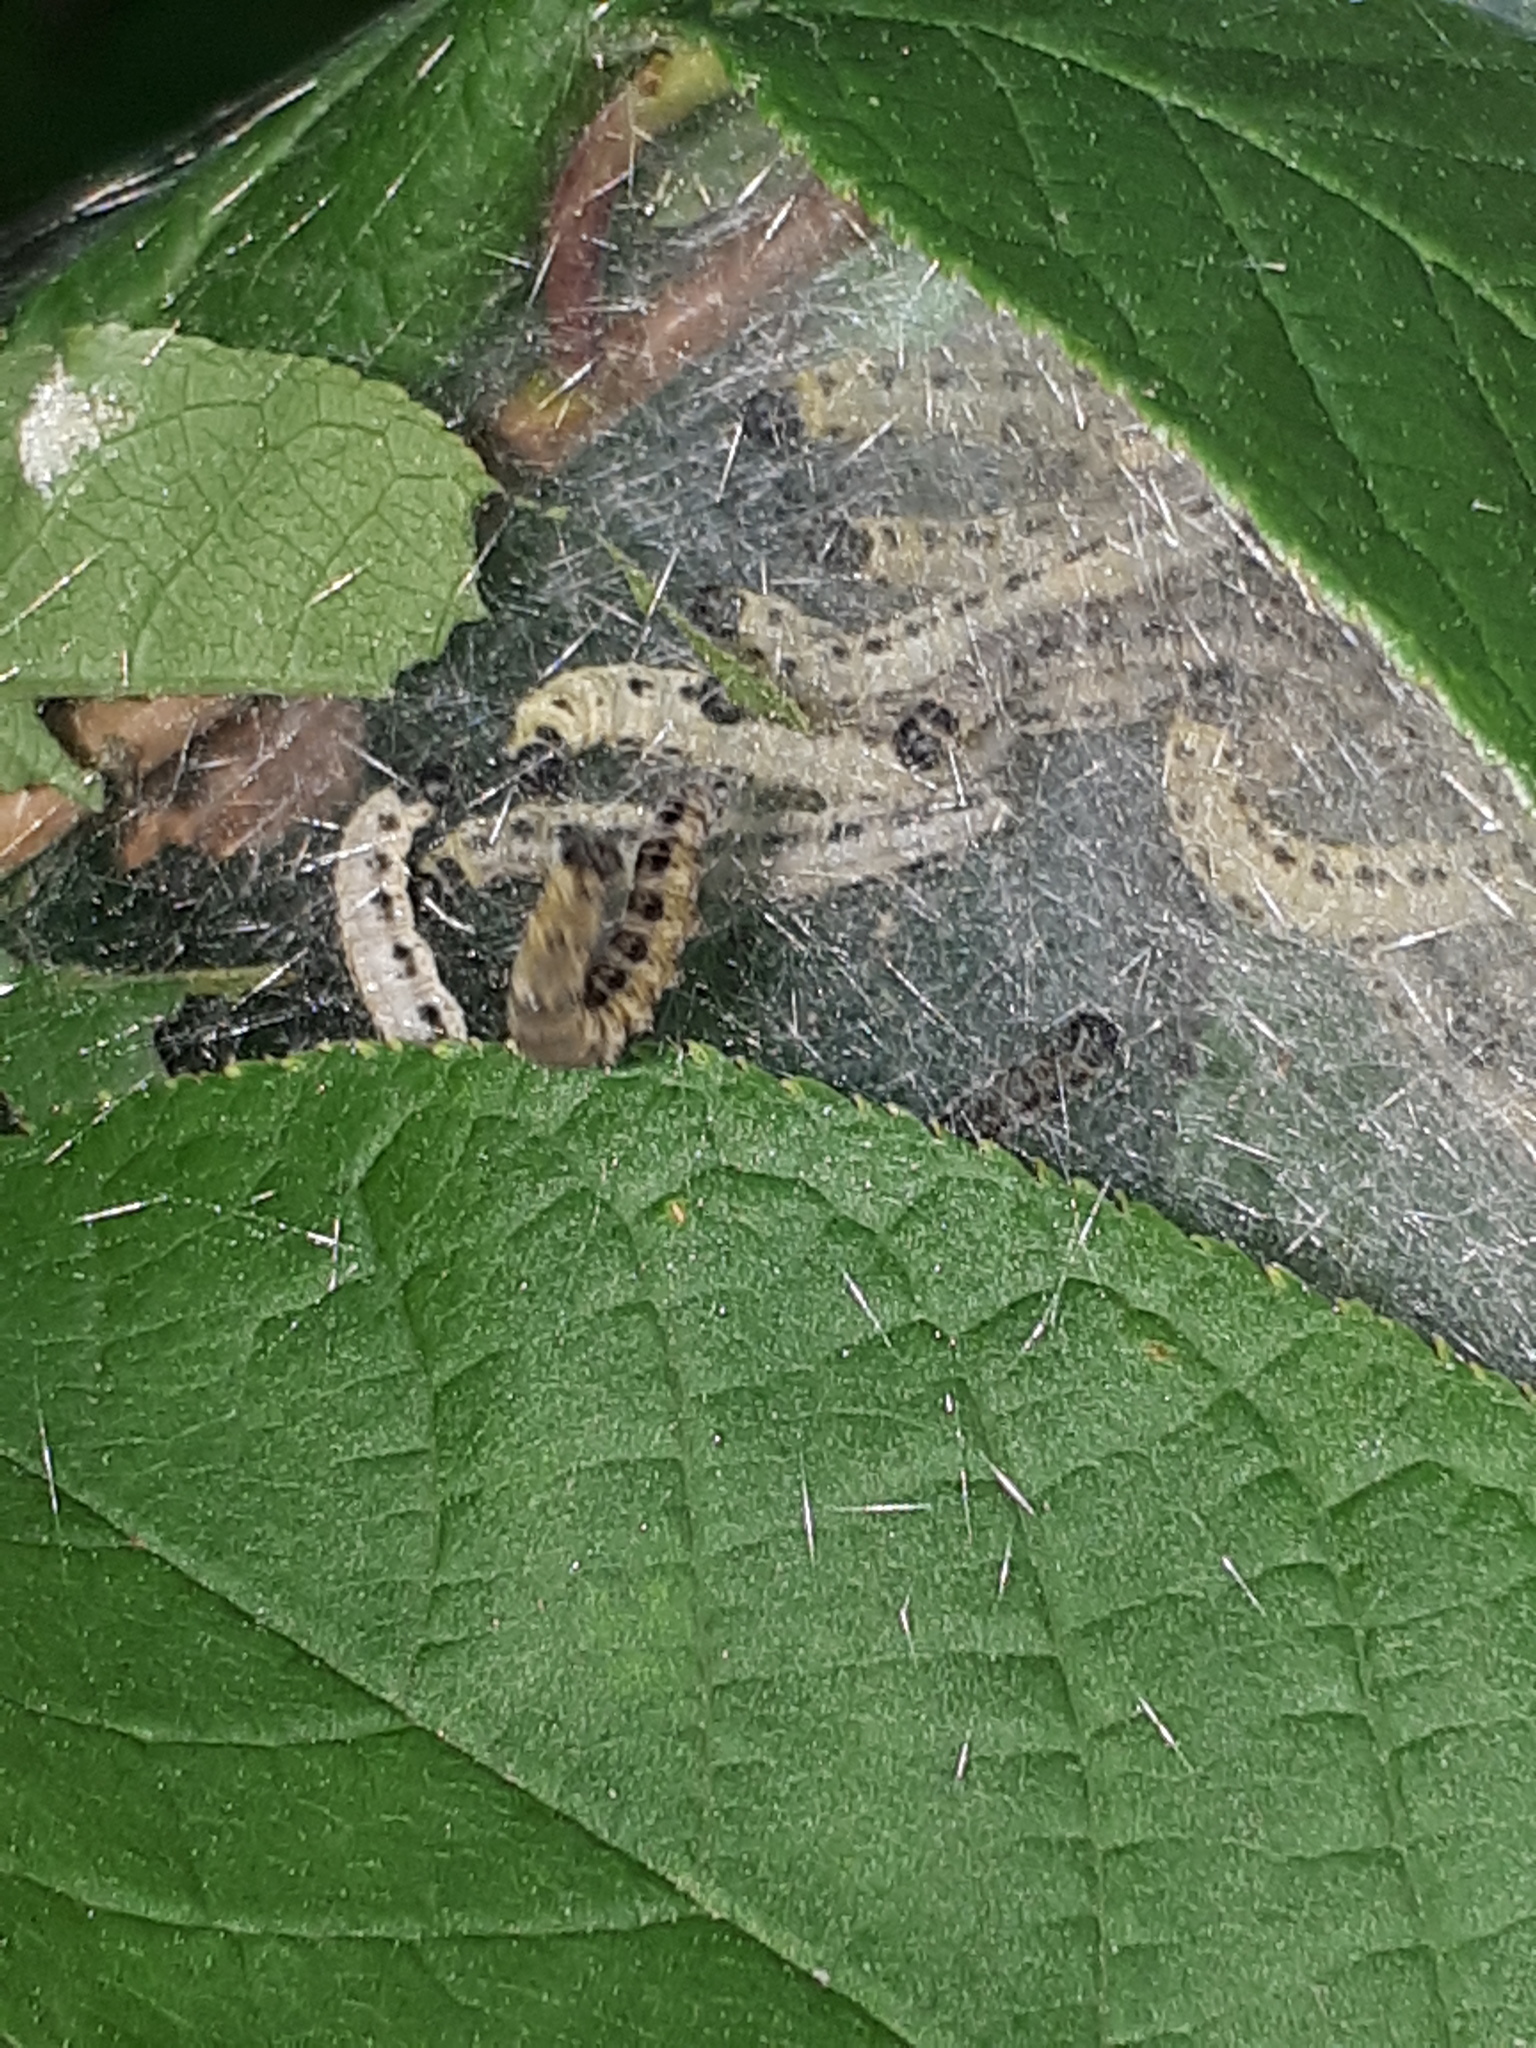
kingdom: Animalia
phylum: Arthropoda
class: Insecta
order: Lepidoptera
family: Yponomeutidae
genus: Yponomeuta
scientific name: Yponomeuta evonymella
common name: Bird-cherry ermine
